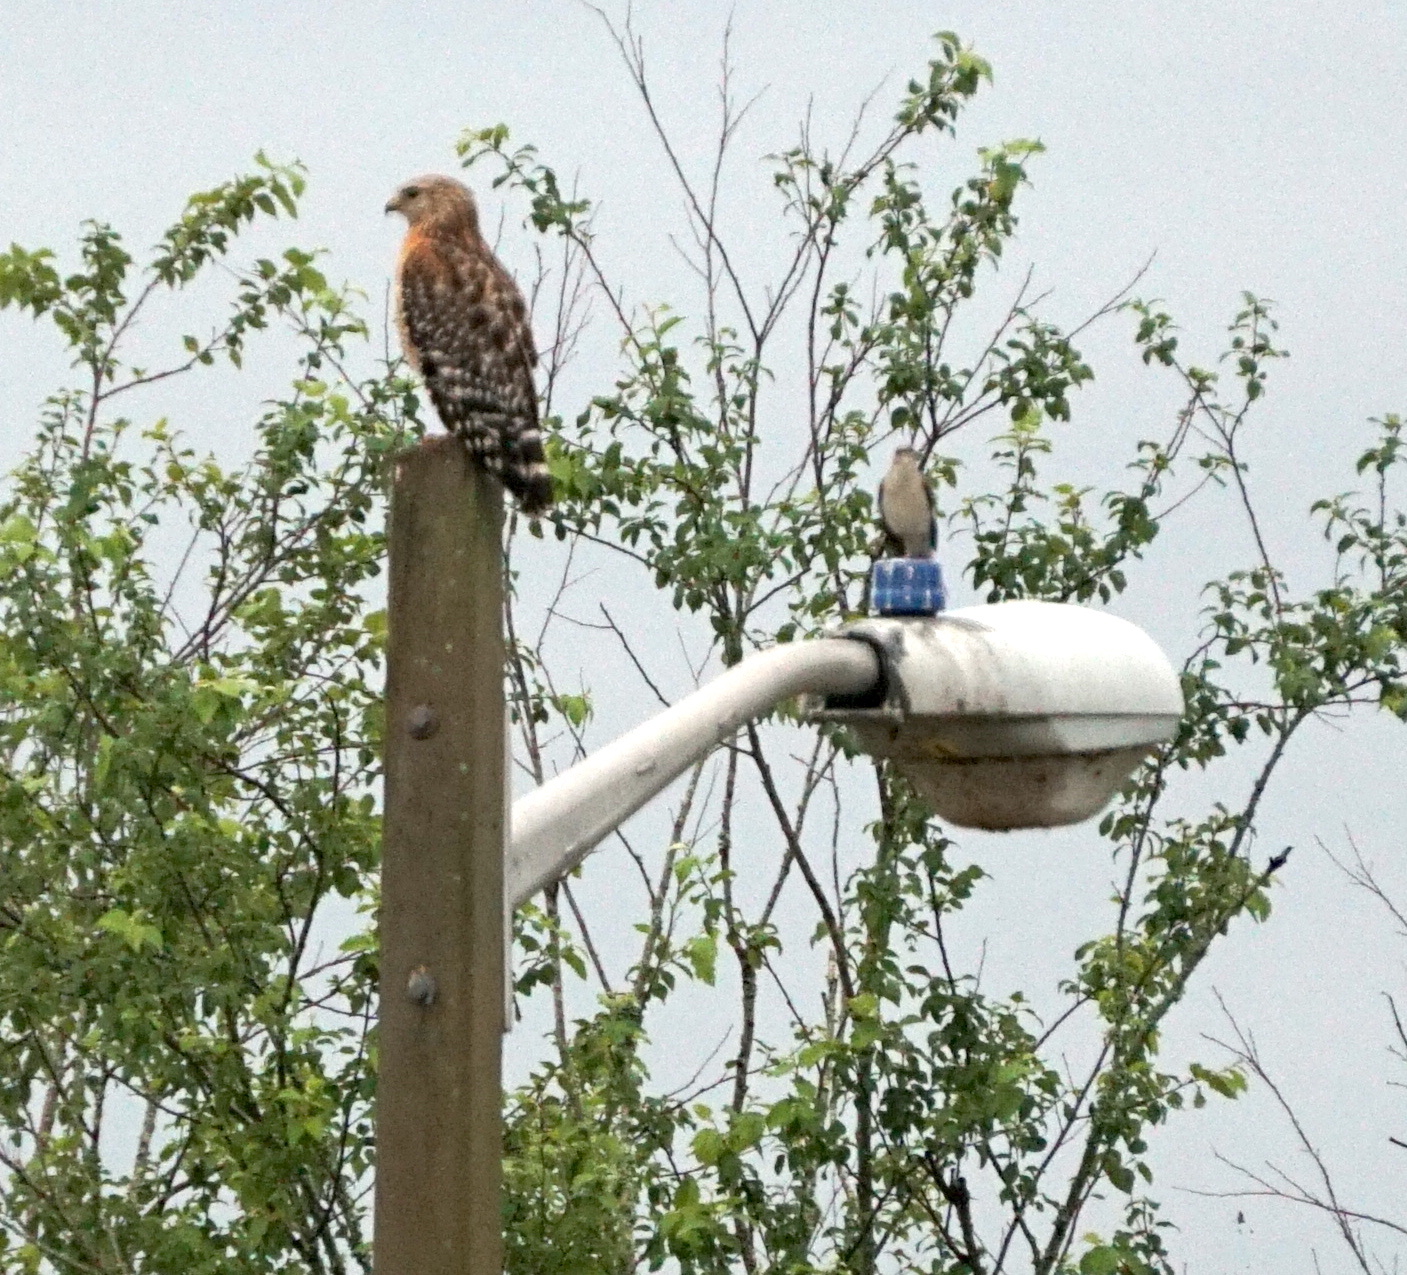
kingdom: Animalia
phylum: Chordata
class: Aves
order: Accipitriformes
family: Accipitridae
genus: Buteo
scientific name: Buteo lineatus
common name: Red-shouldered hawk
